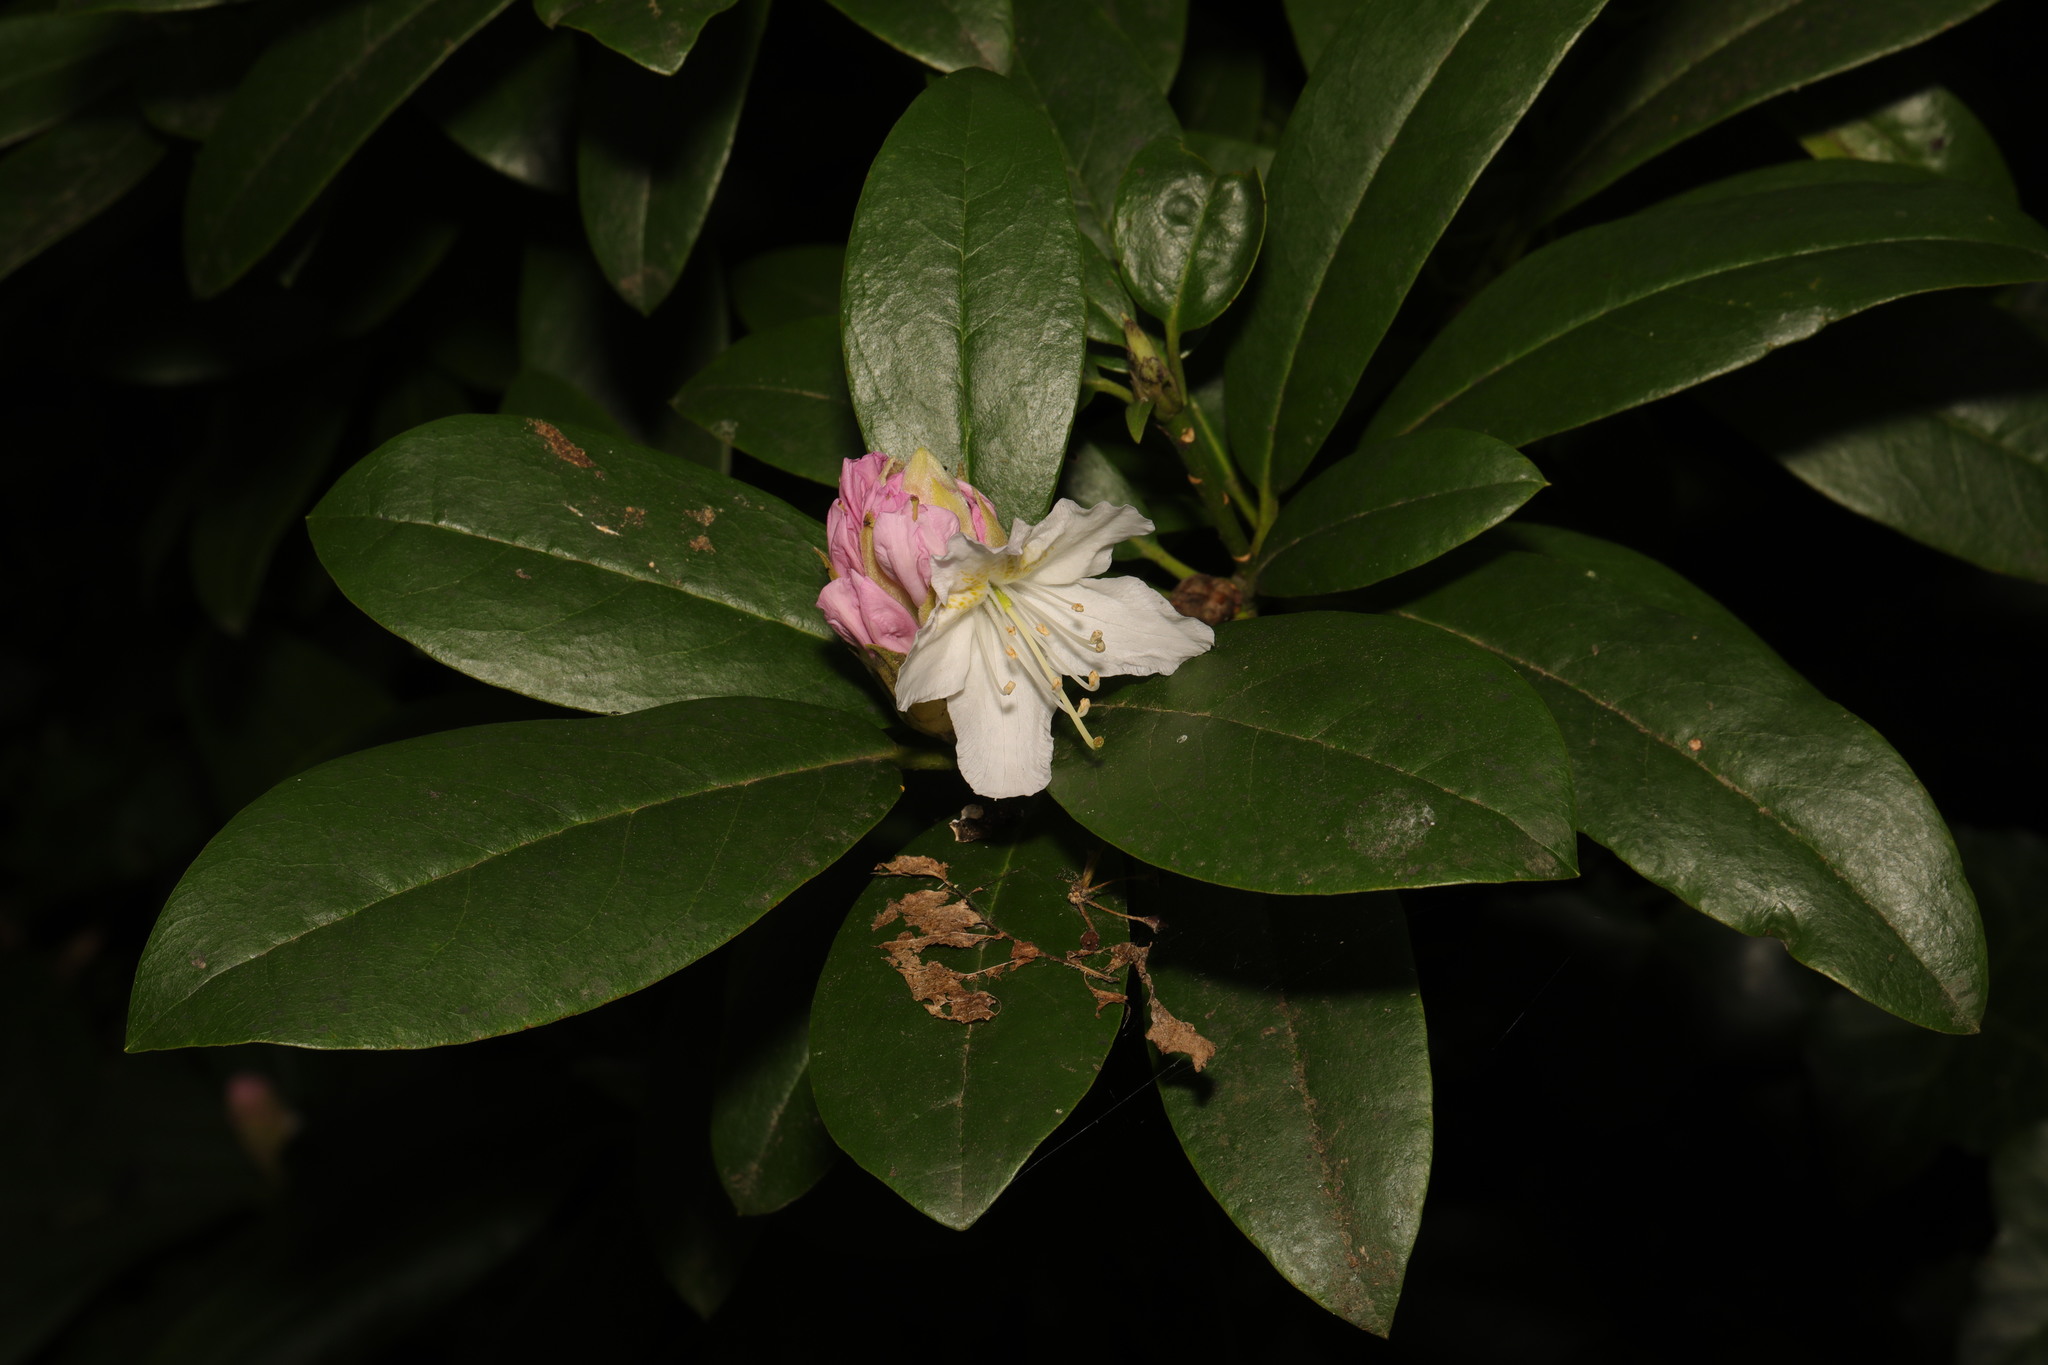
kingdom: Plantae
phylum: Tracheophyta
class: Magnoliopsida
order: Ericales
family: Ericaceae
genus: Rhododendron
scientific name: Rhododendron ponticum
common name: Rhododendron
